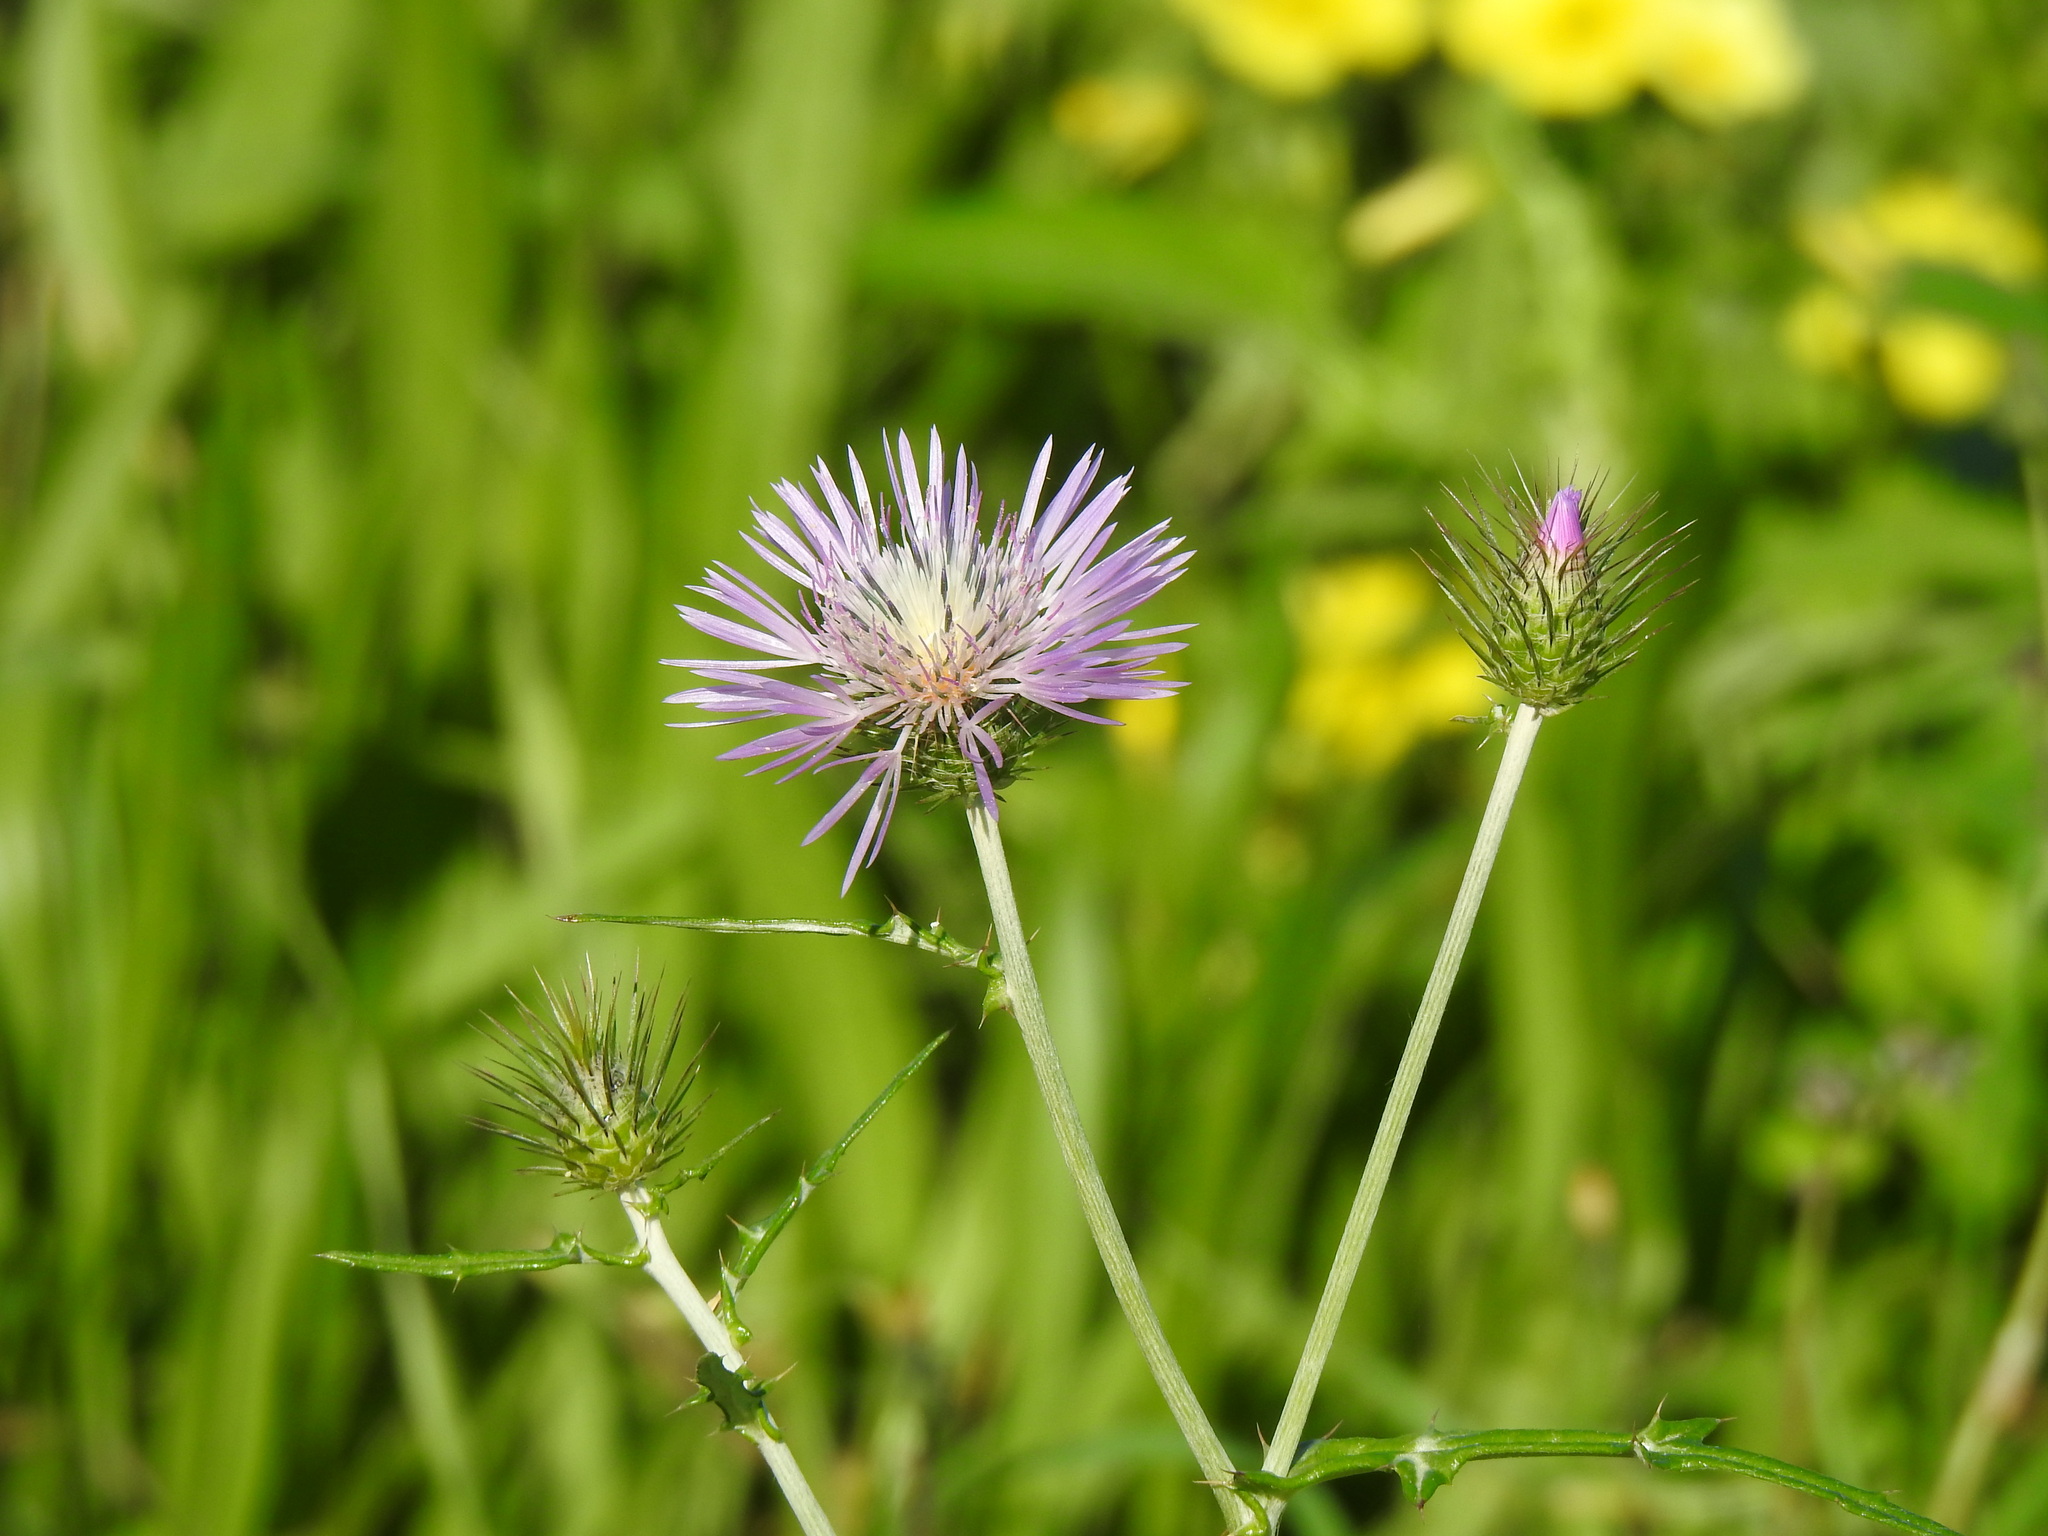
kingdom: Plantae
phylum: Tracheophyta
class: Magnoliopsida
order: Asterales
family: Asteraceae
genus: Galactites
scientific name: Galactites tomentosa
